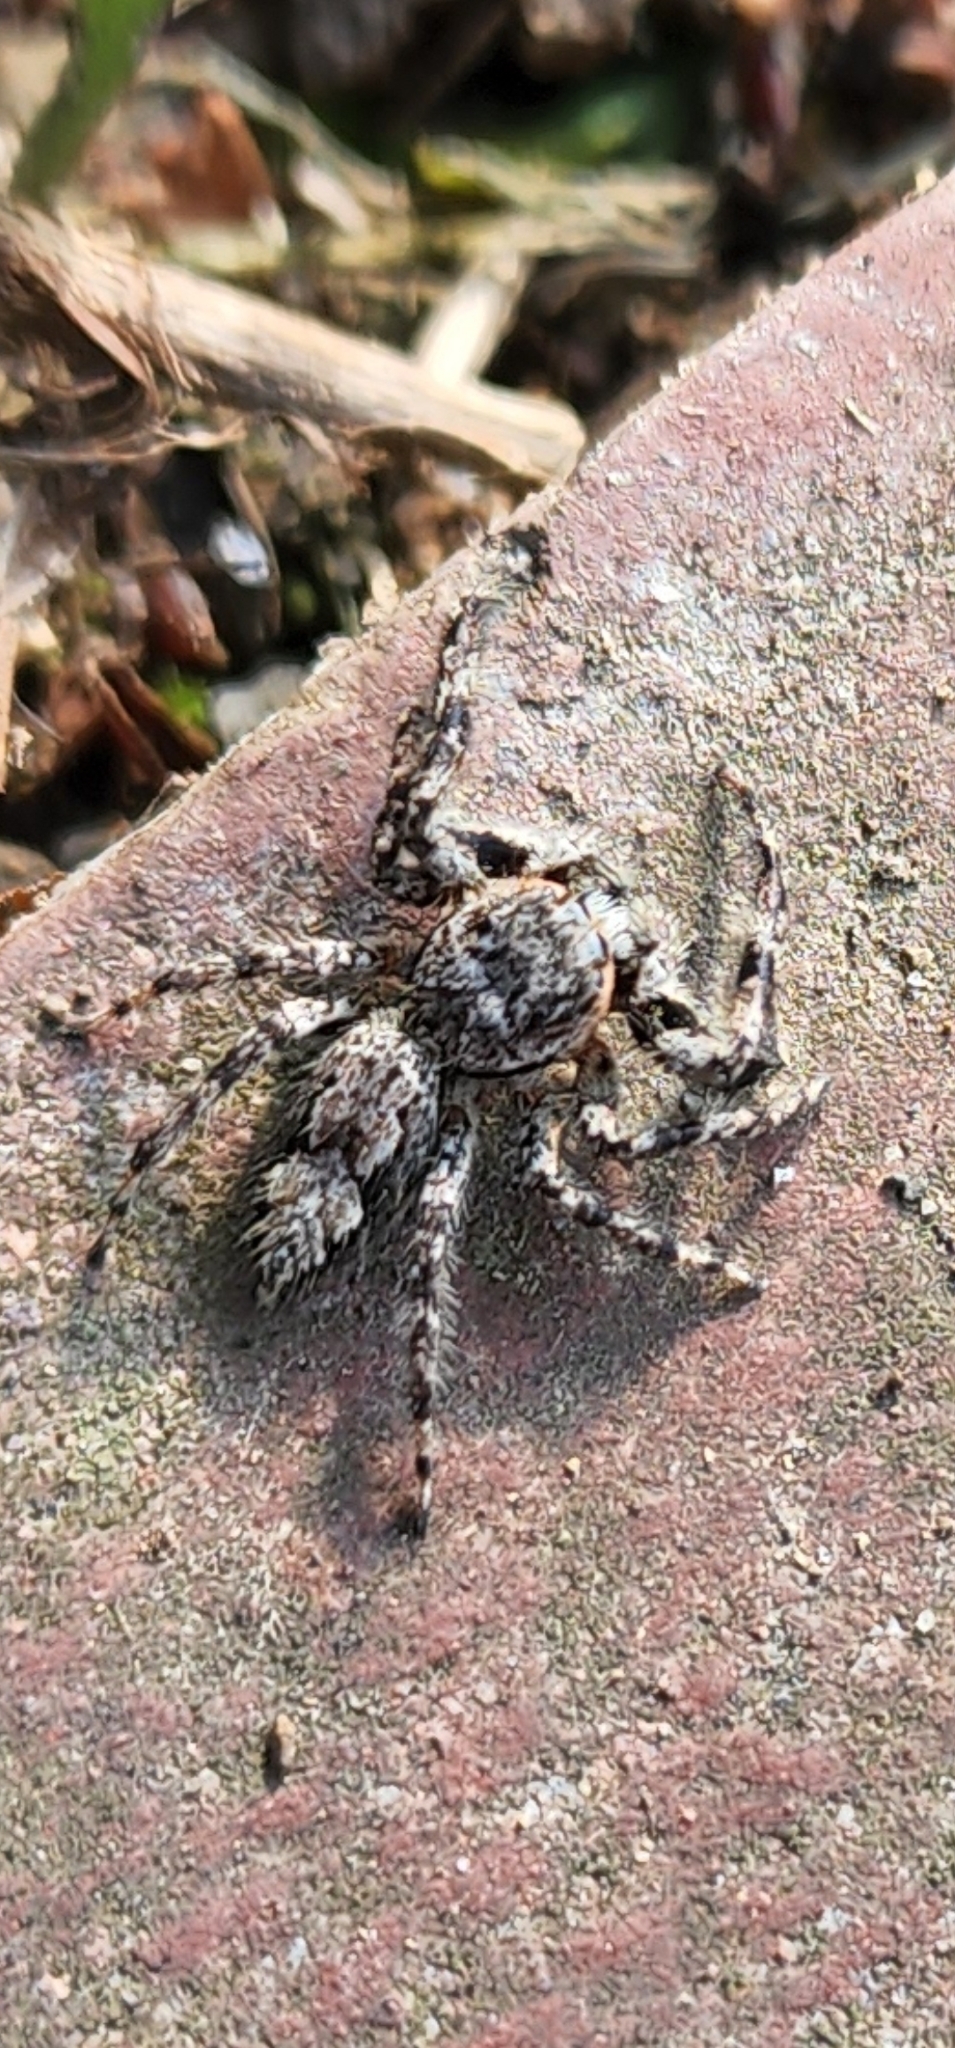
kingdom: Animalia
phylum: Arthropoda
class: Arachnida
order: Araneae
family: Salticidae
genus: Platycryptus
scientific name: Platycryptus undatus
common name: Tan jumping spider
